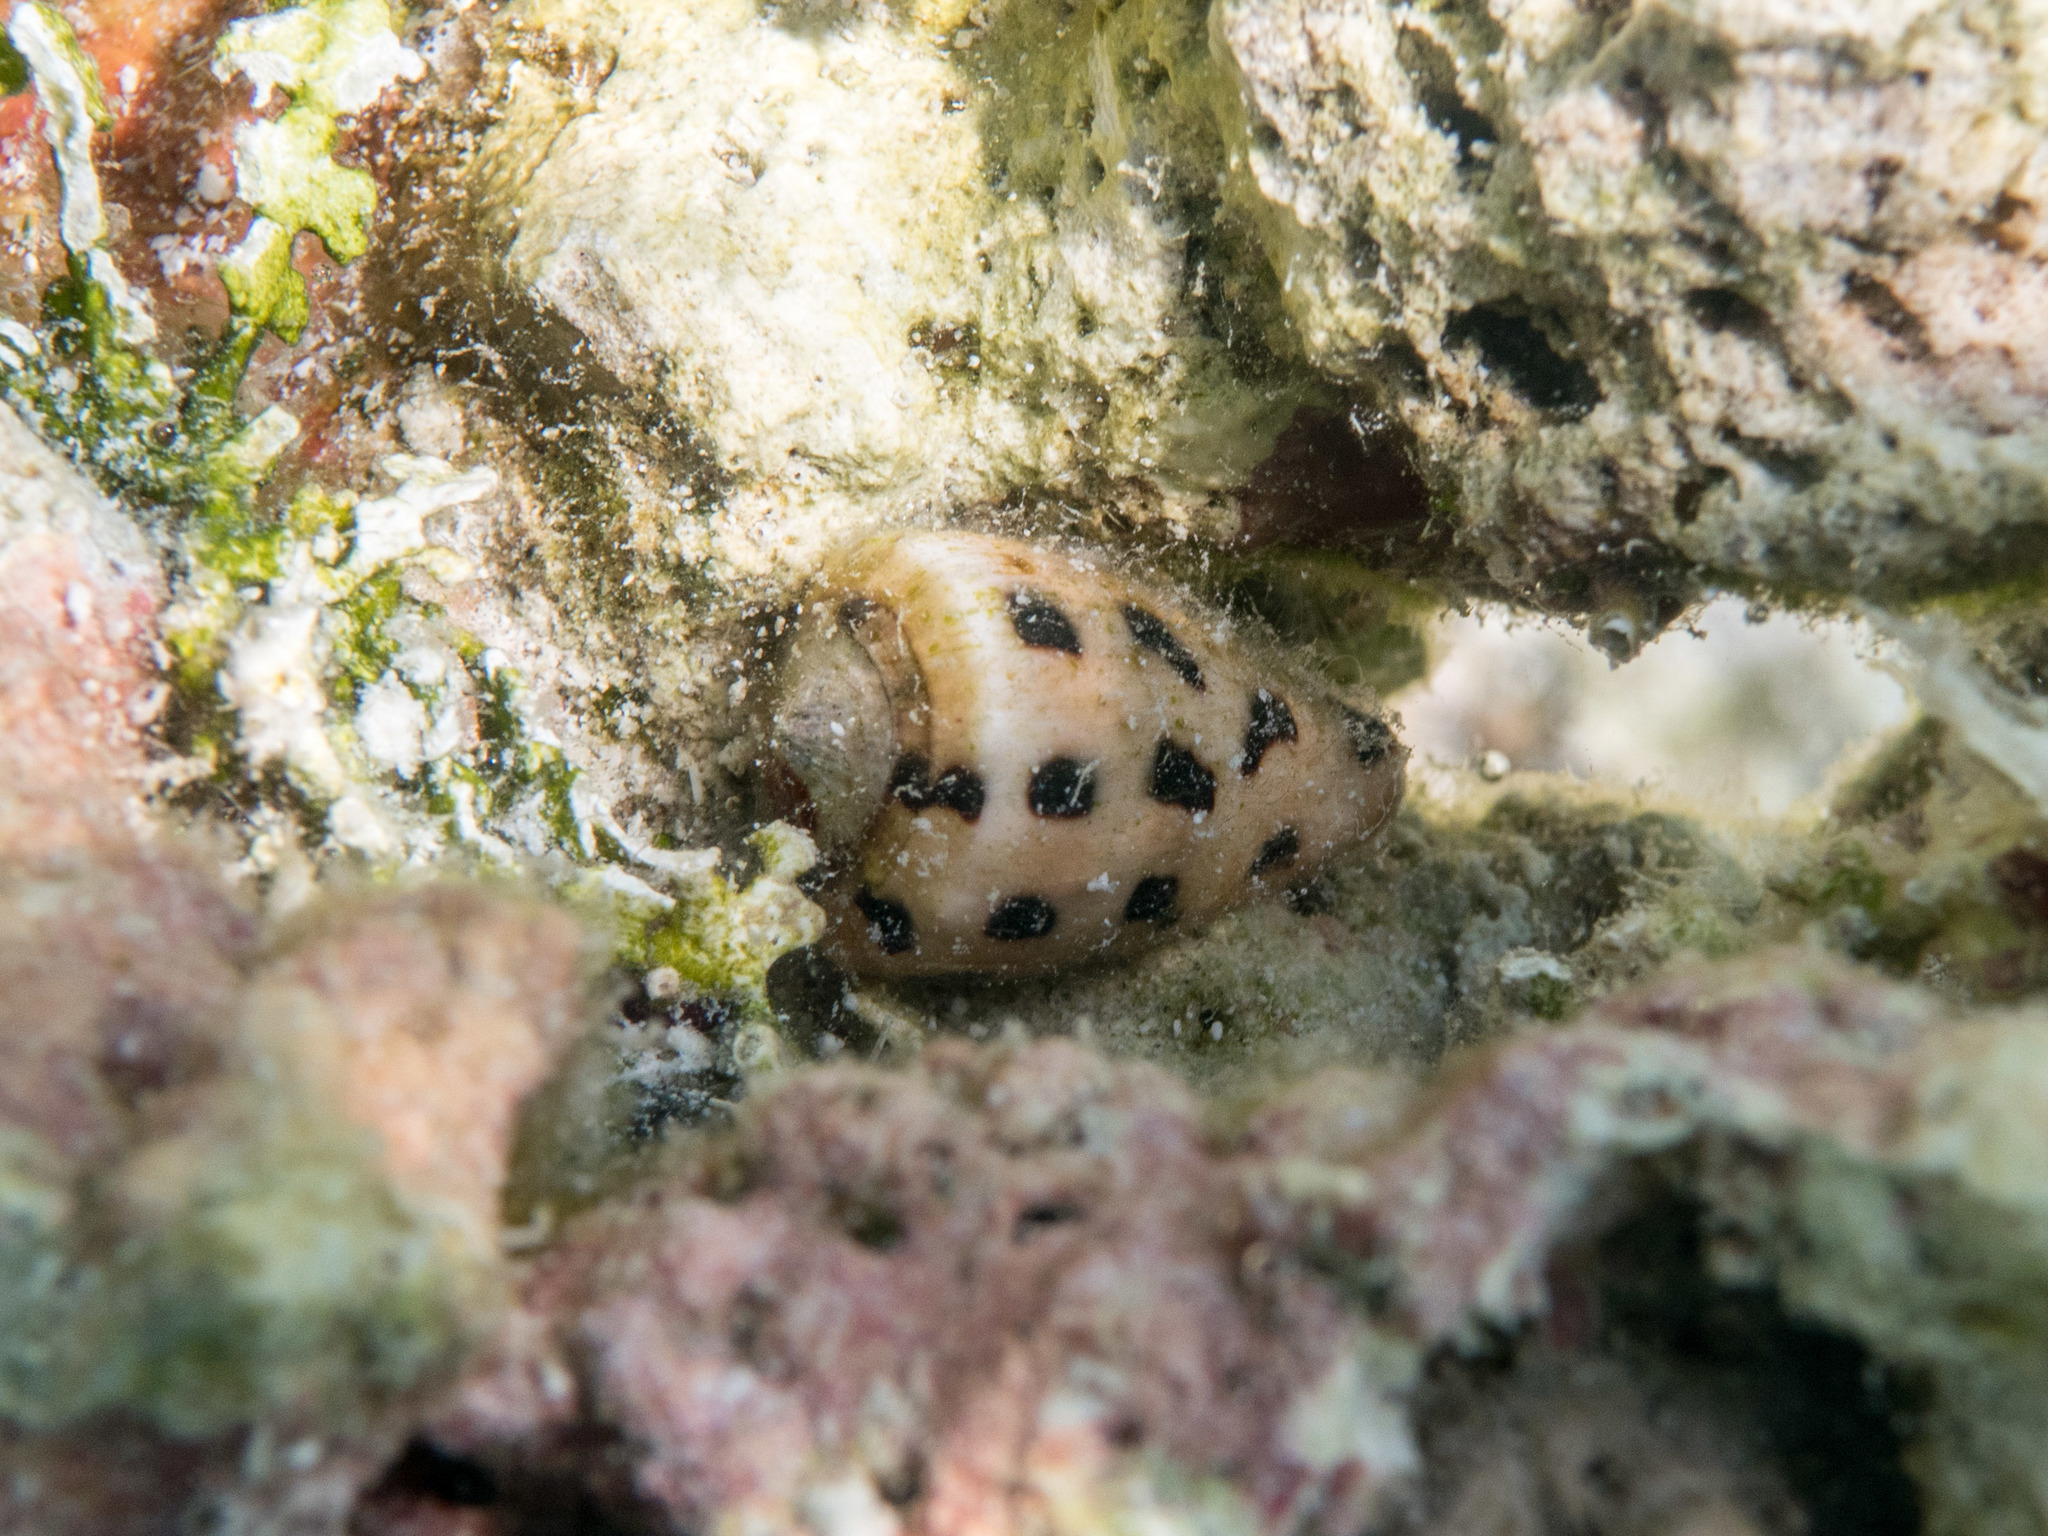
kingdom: Animalia
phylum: Mollusca
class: Gastropoda
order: Neogastropoda
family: Conidae
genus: Conus
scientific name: Conus ebraeus
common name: Hebrew cone
